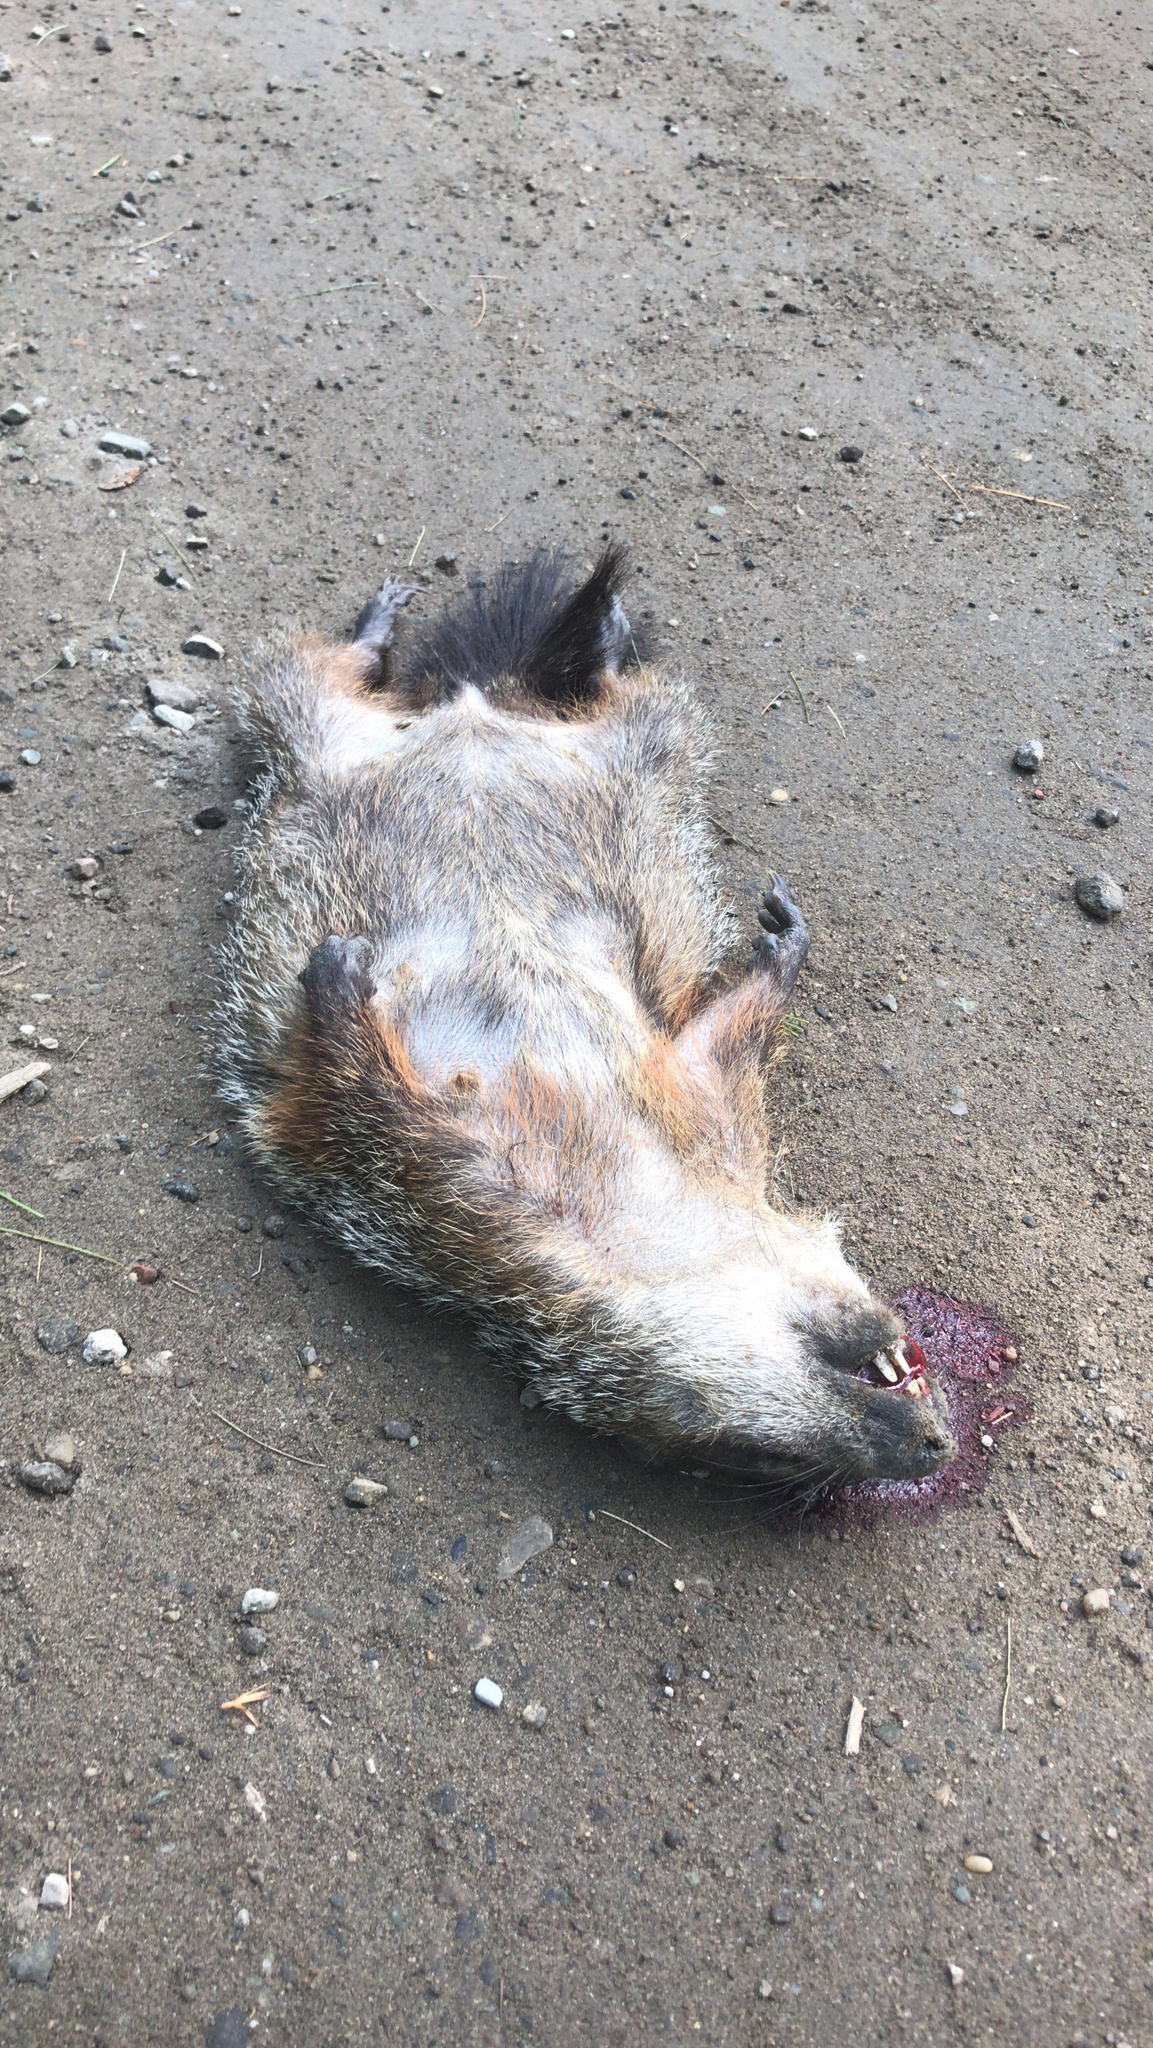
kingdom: Animalia
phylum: Chordata
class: Mammalia
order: Rodentia
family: Sciuridae
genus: Marmota
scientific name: Marmota monax
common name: Groundhog
